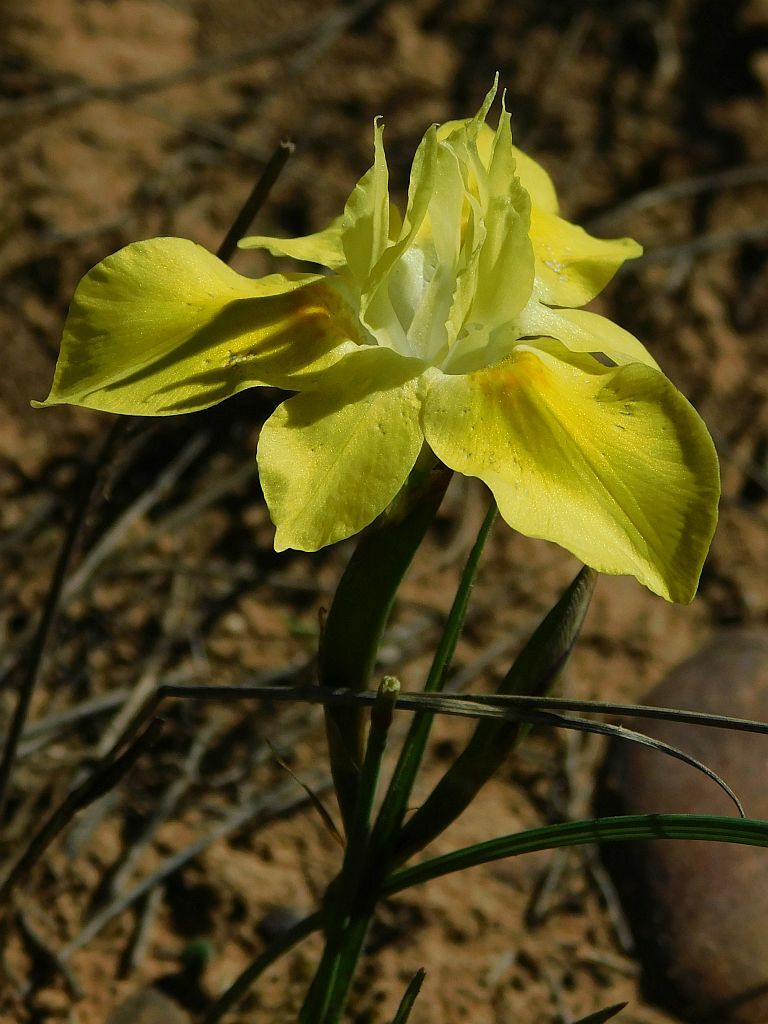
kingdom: Plantae
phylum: Tracheophyta
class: Liliopsida
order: Asparagales
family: Iridaceae
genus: Moraea
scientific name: Moraea fugax
